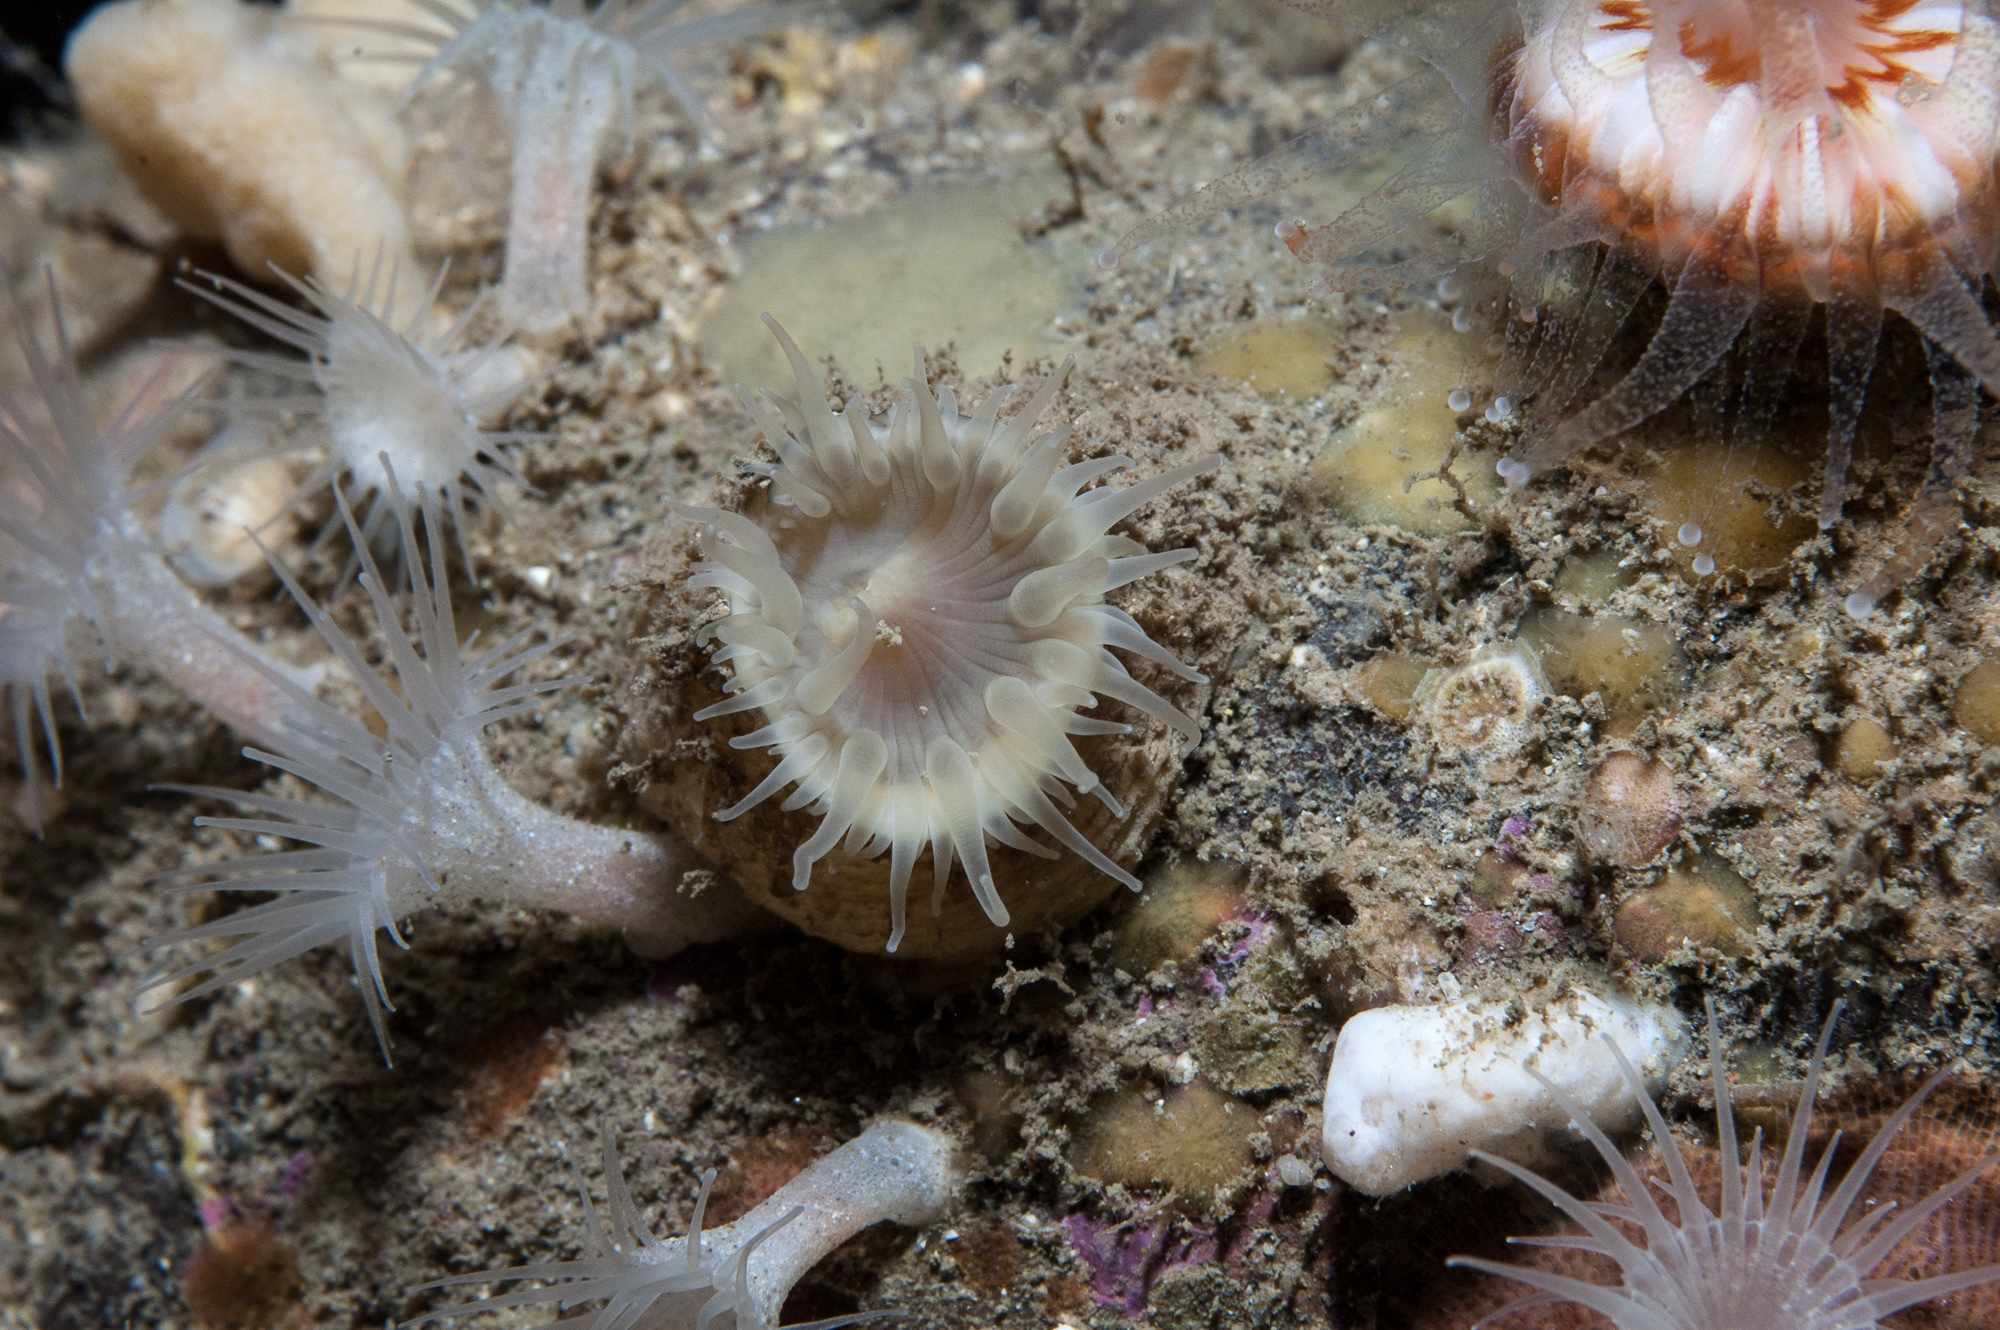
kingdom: Animalia
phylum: Cnidaria
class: Anthozoa
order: Actiniaria
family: Hormathiidae
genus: Hormathia
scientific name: Hormathia coronata
